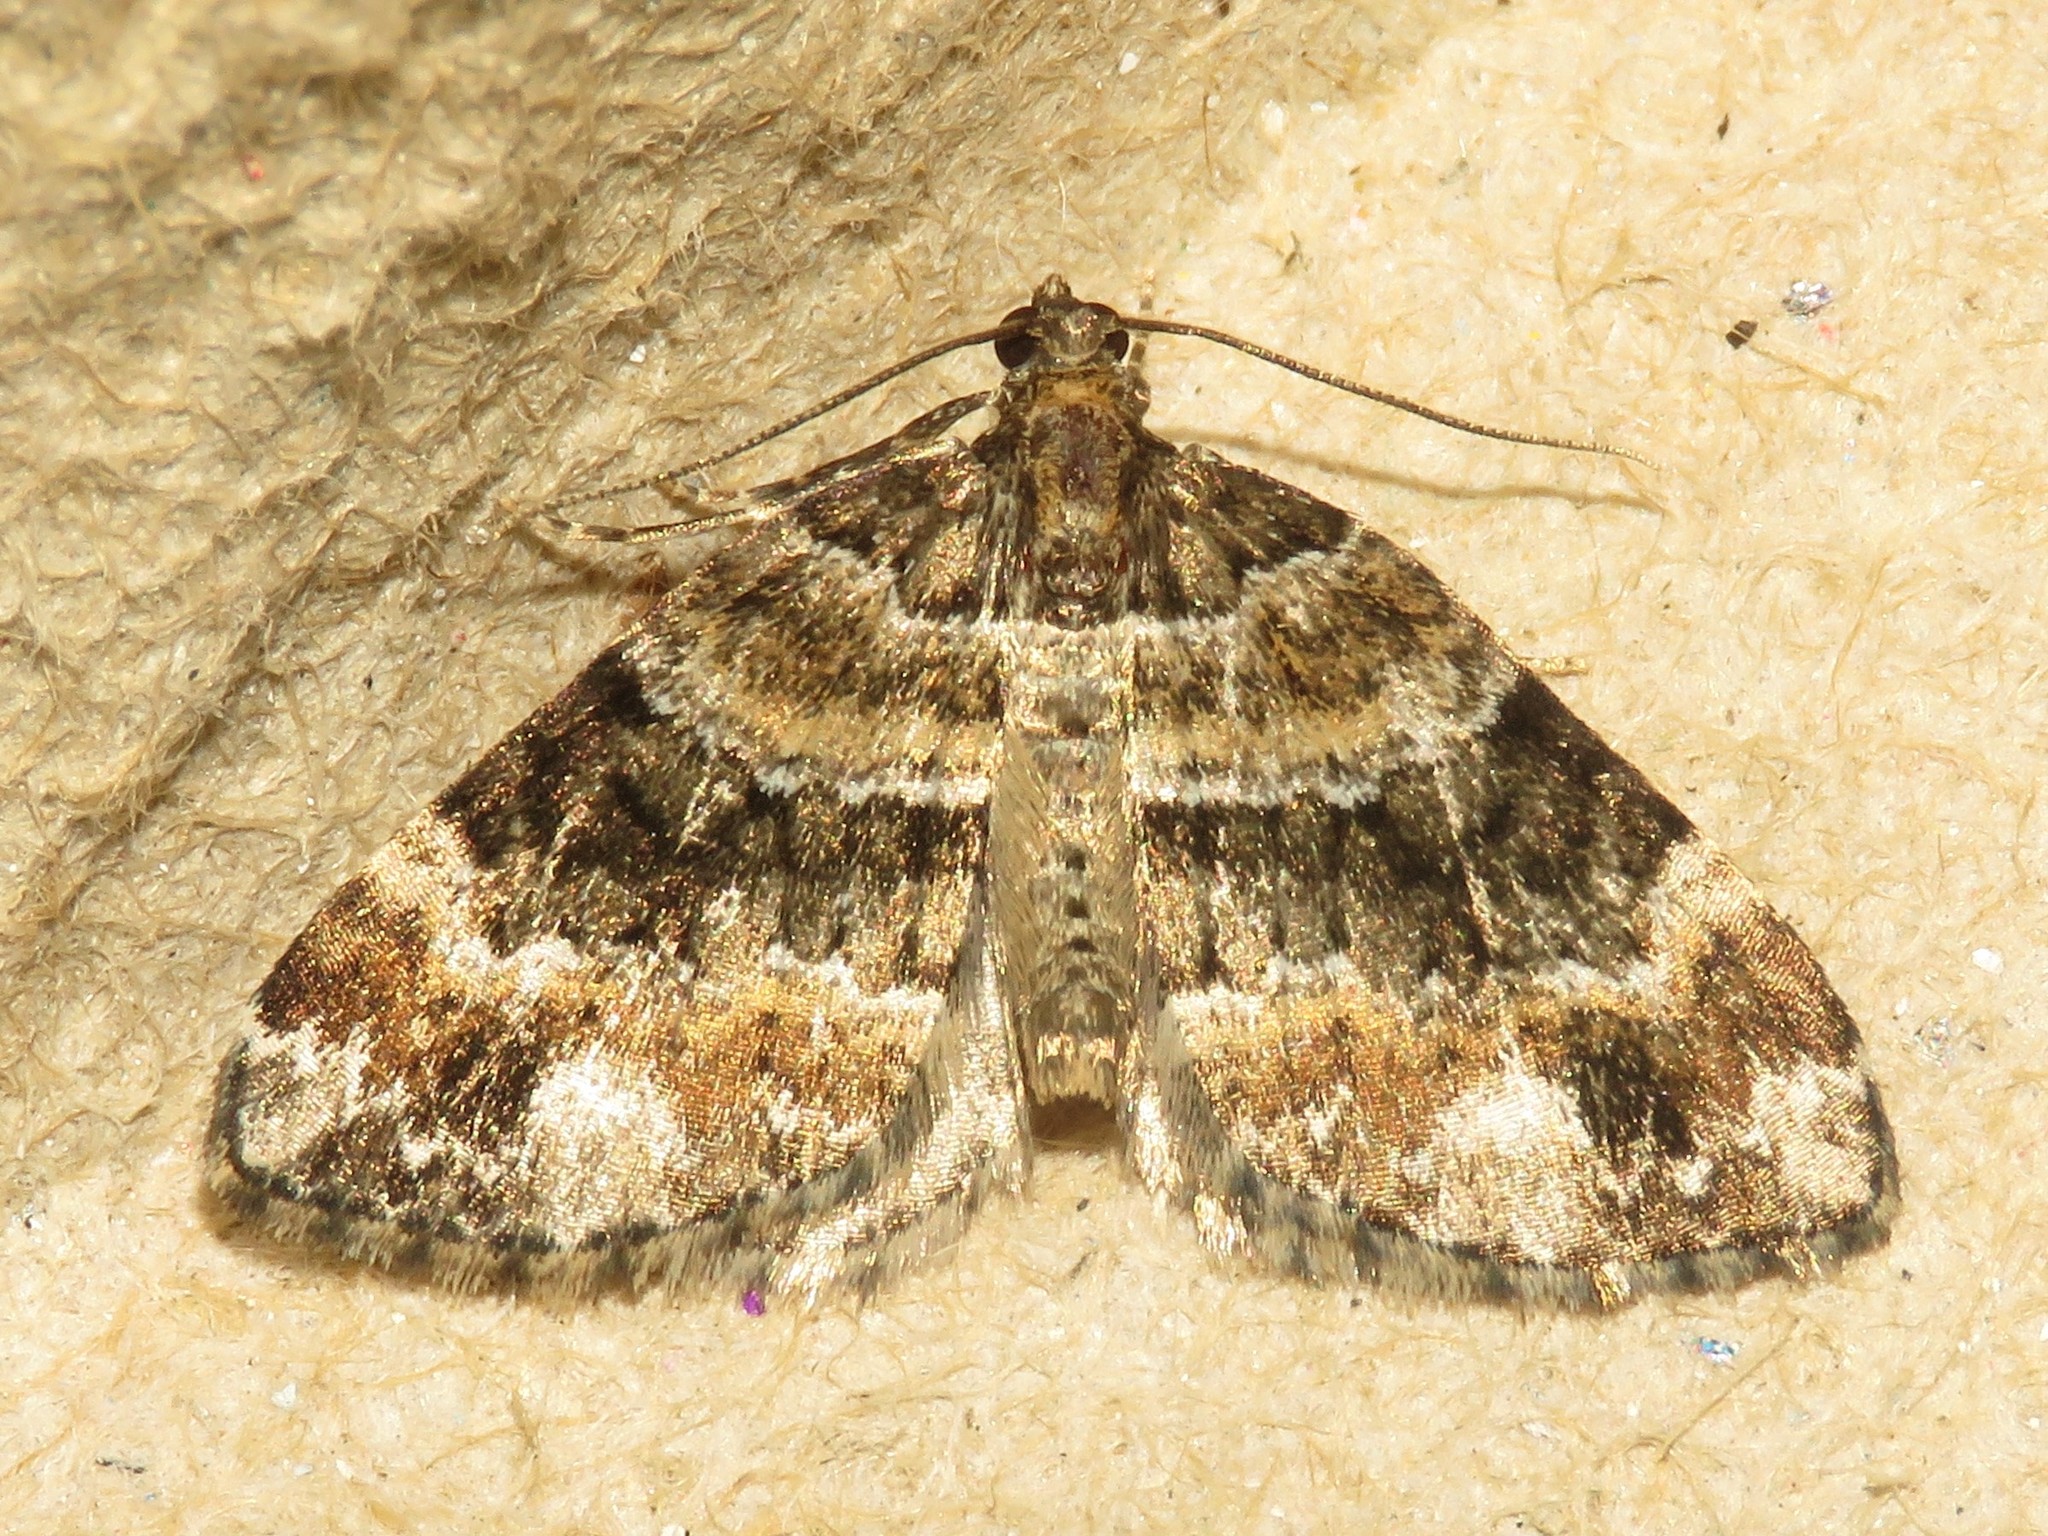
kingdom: Animalia
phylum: Arthropoda
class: Insecta
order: Lepidoptera
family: Geometridae
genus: Martania
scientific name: Martania
